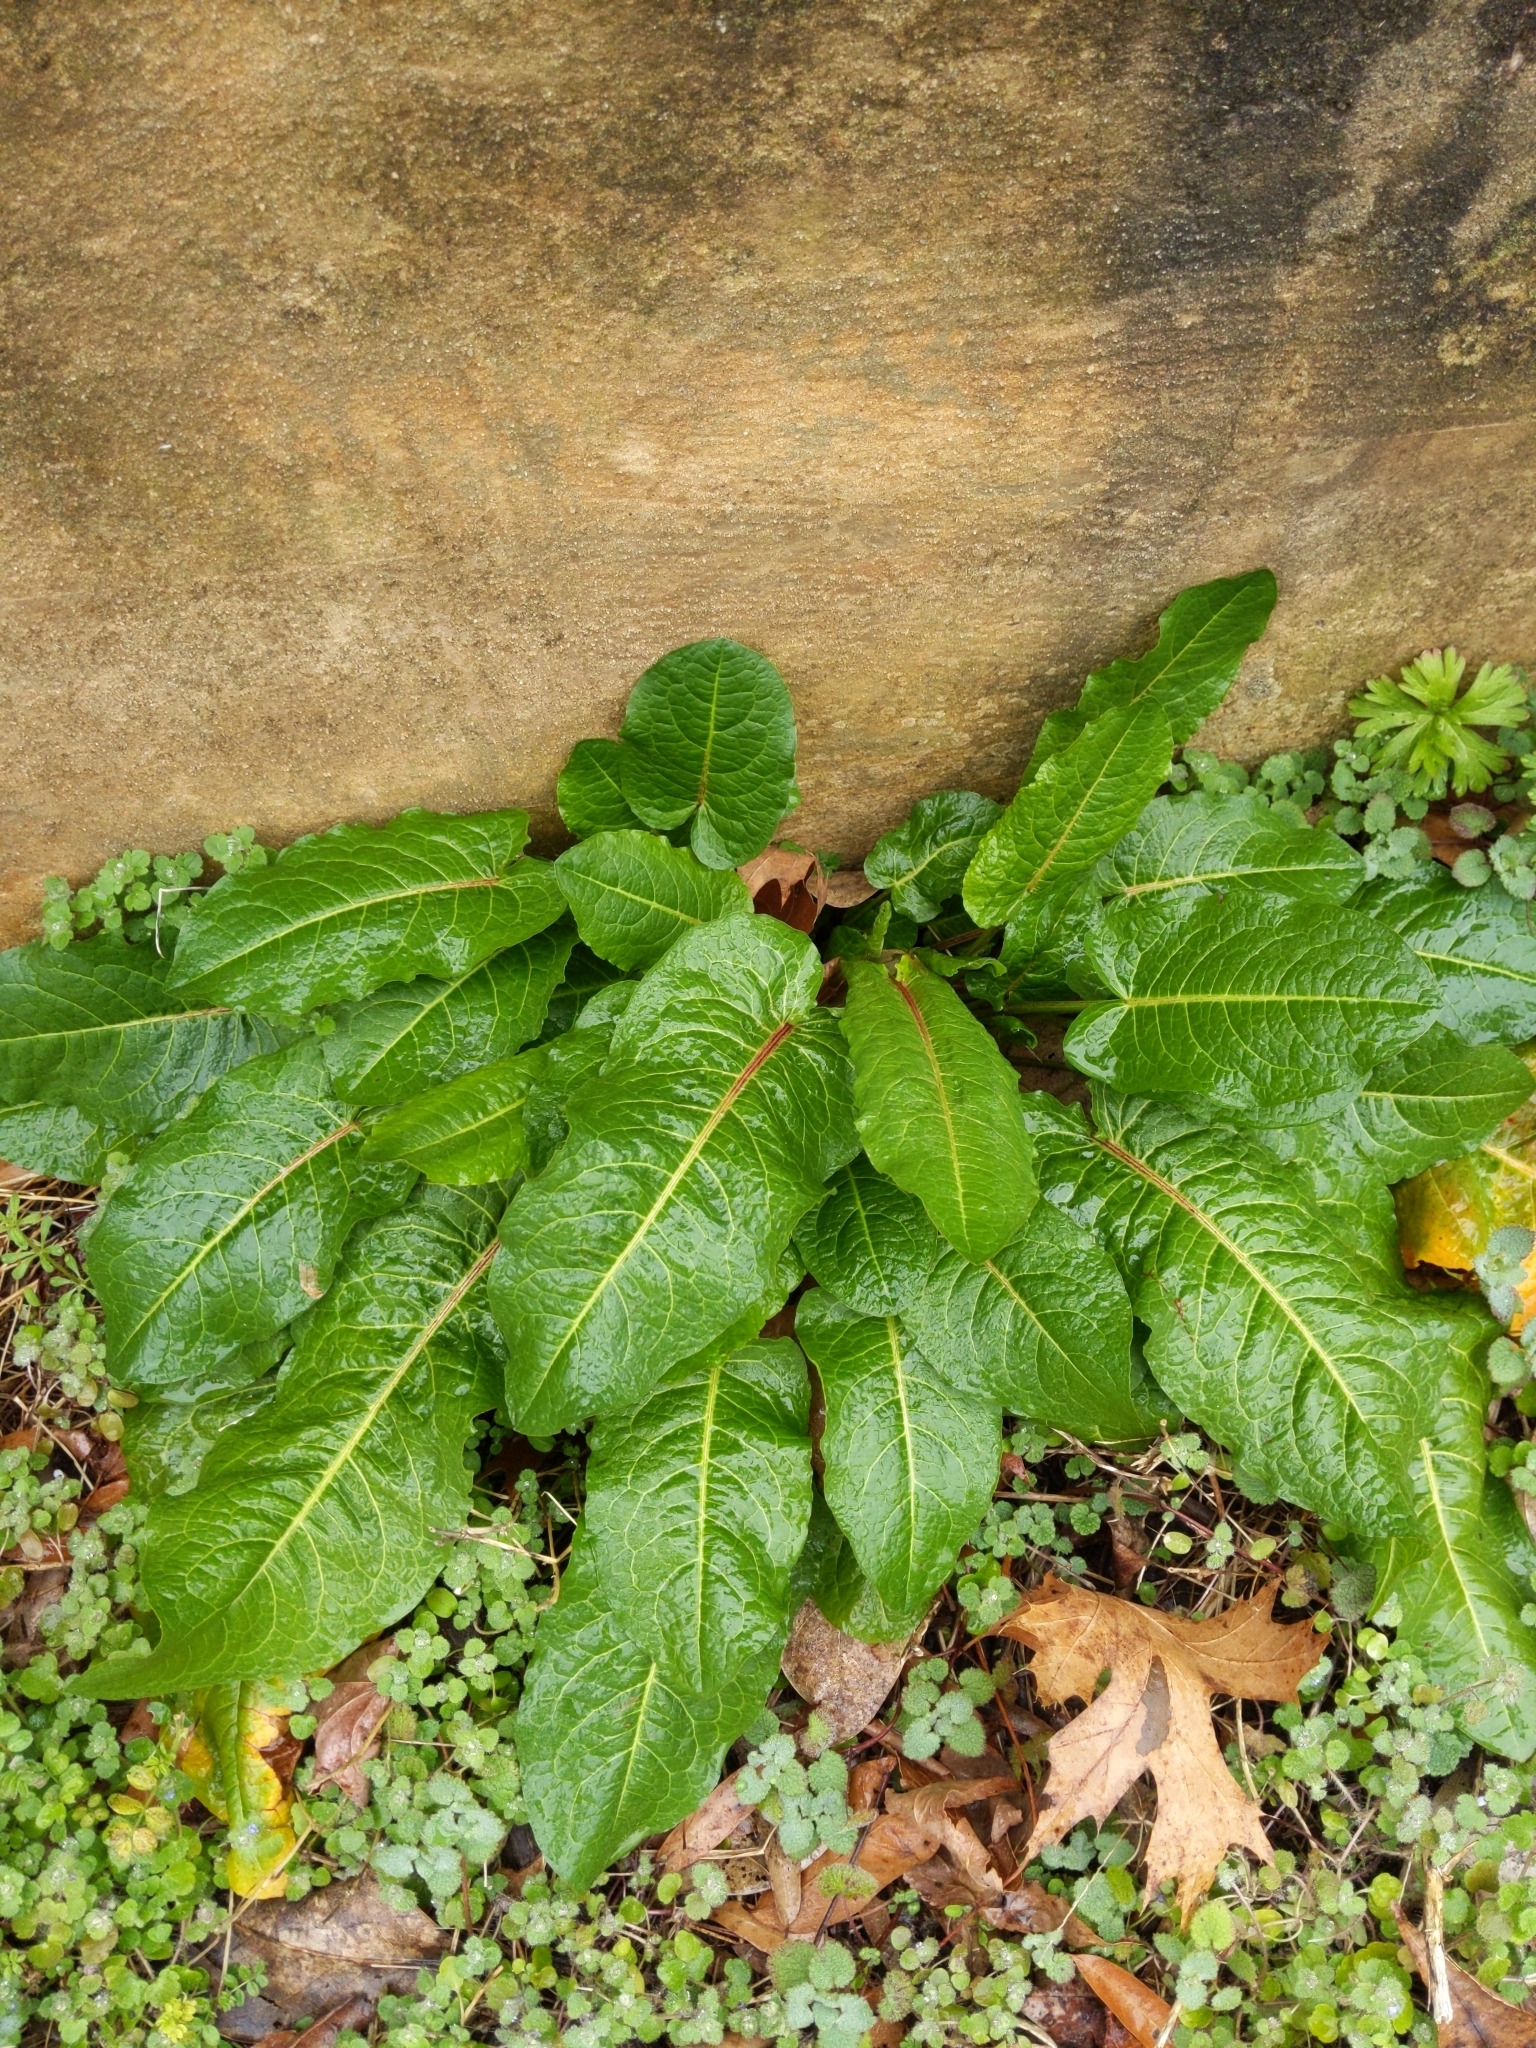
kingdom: Plantae
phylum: Tracheophyta
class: Magnoliopsida
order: Caryophyllales
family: Polygonaceae
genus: Rumex
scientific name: Rumex obtusifolius
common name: Bitter dock
